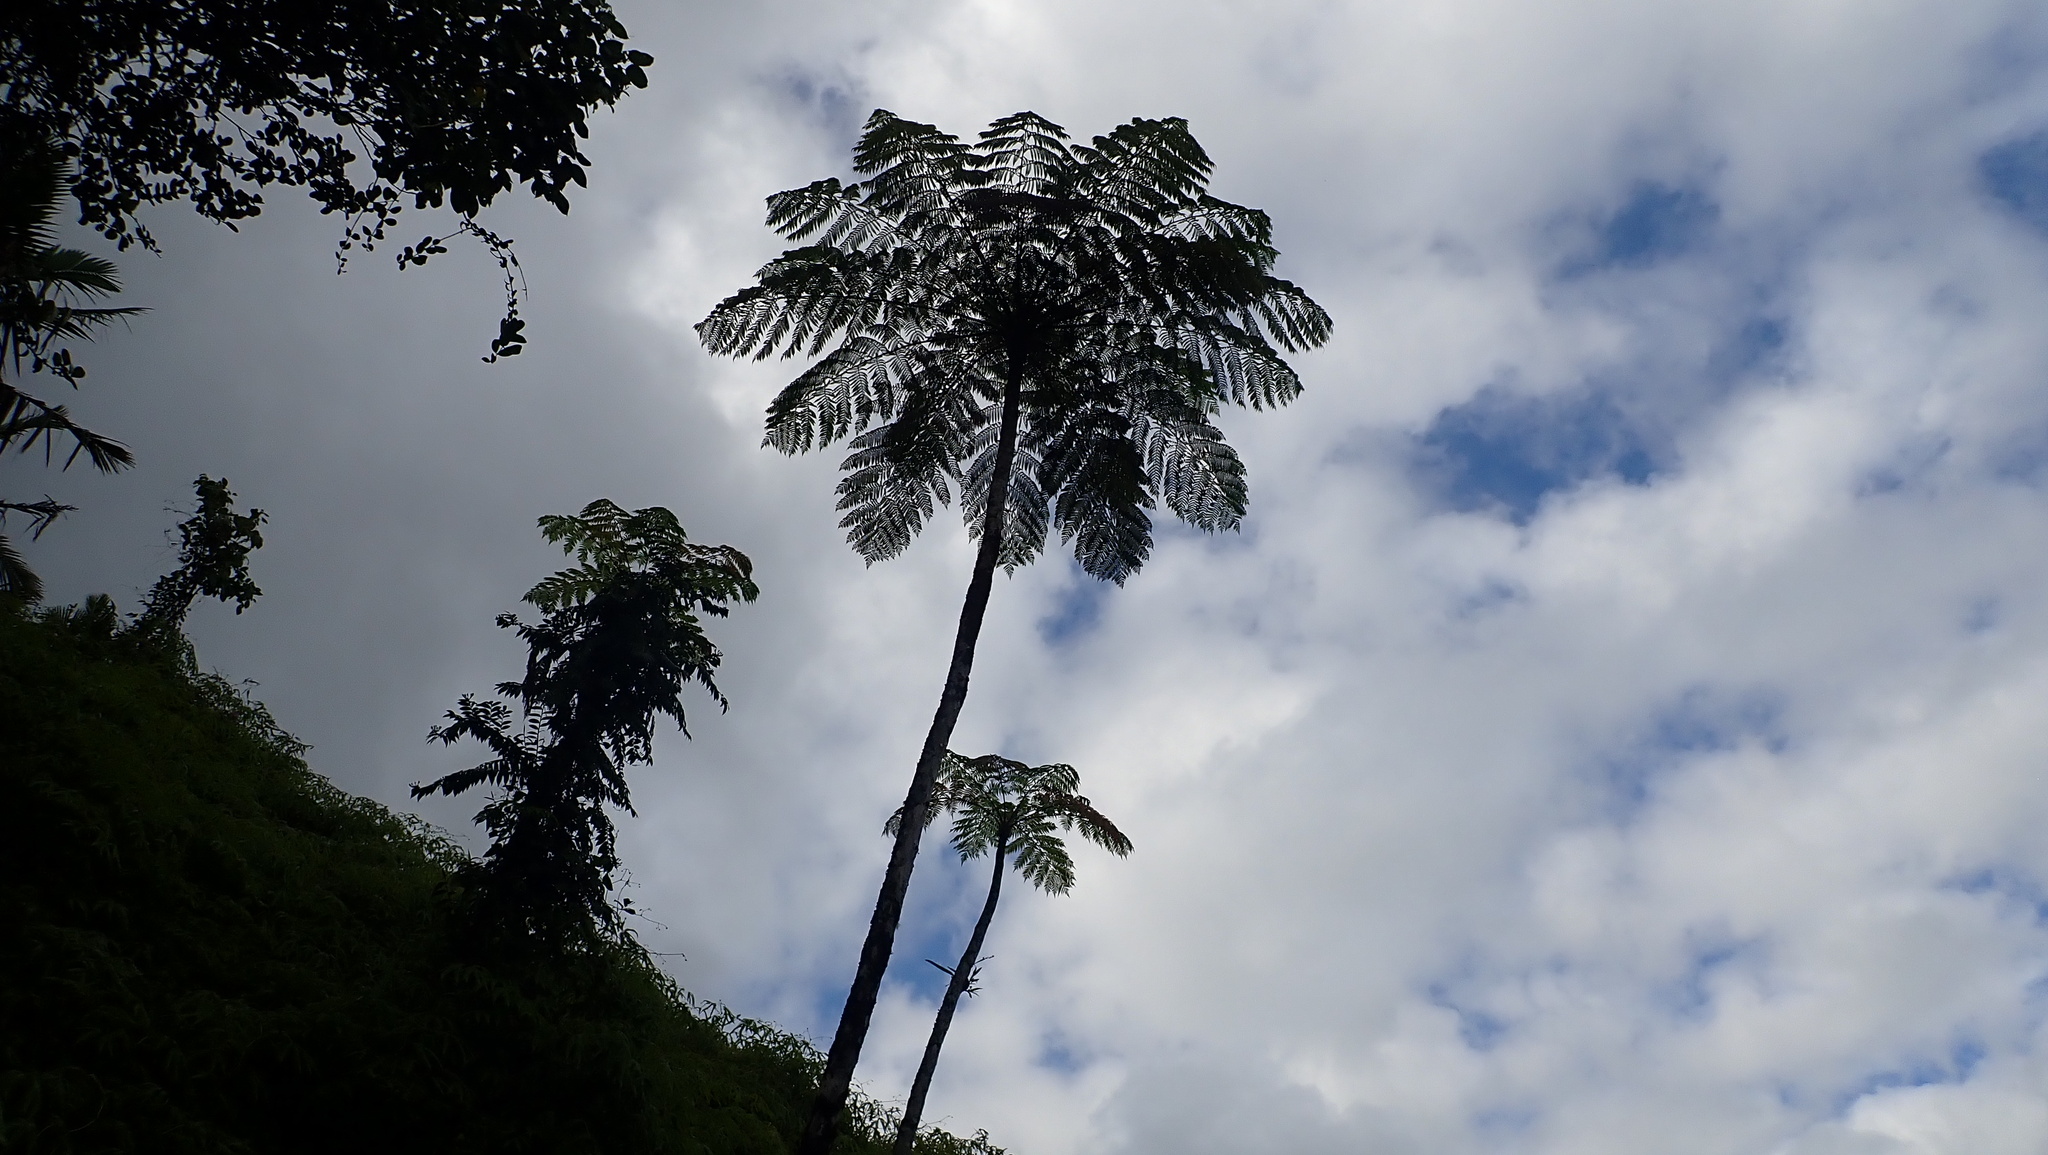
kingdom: Plantae
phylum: Tracheophyta
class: Polypodiopsida
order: Cyatheales
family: Cyatheaceae
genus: Cyathea
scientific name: Cyathea arborea
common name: West indian treefern
